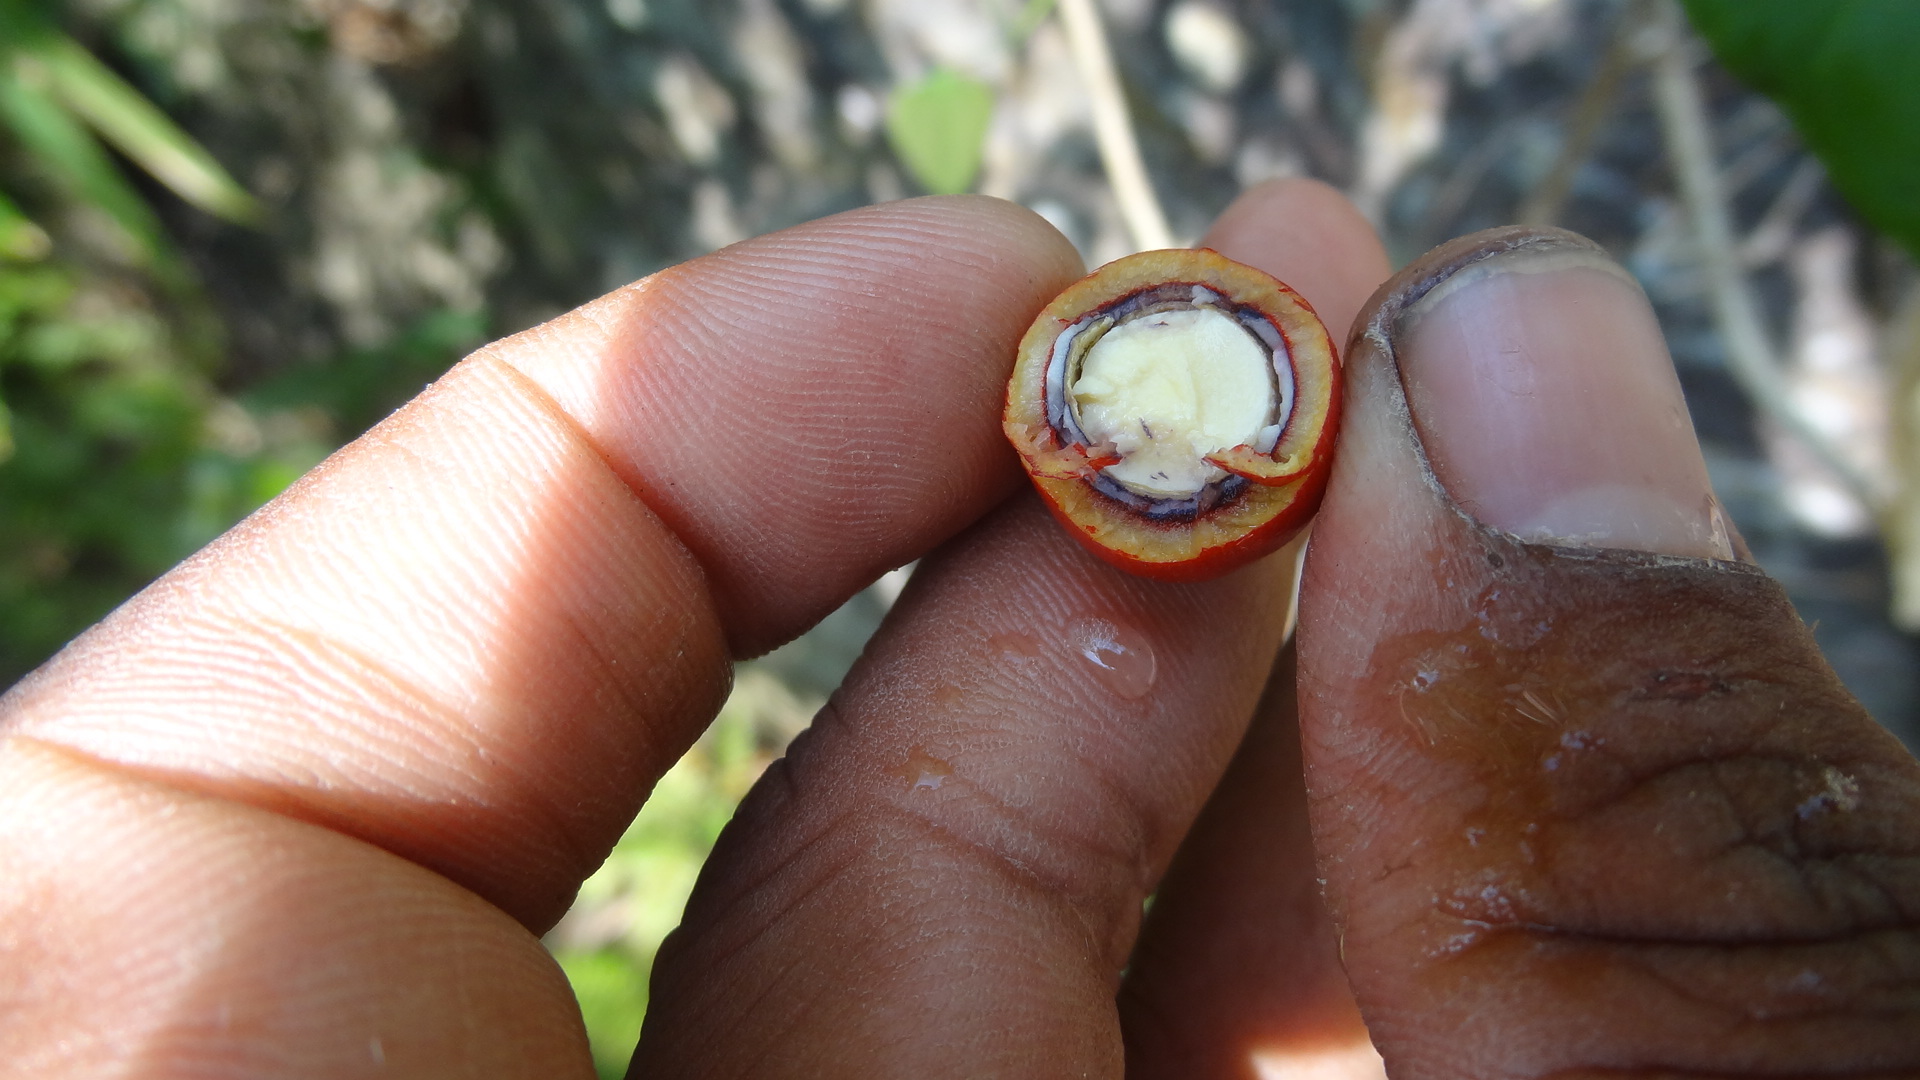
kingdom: Plantae
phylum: Tracheophyta
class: Magnoliopsida
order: Santalales
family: Erythropalaceae
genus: Erythropalum
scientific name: Erythropalum scandens
